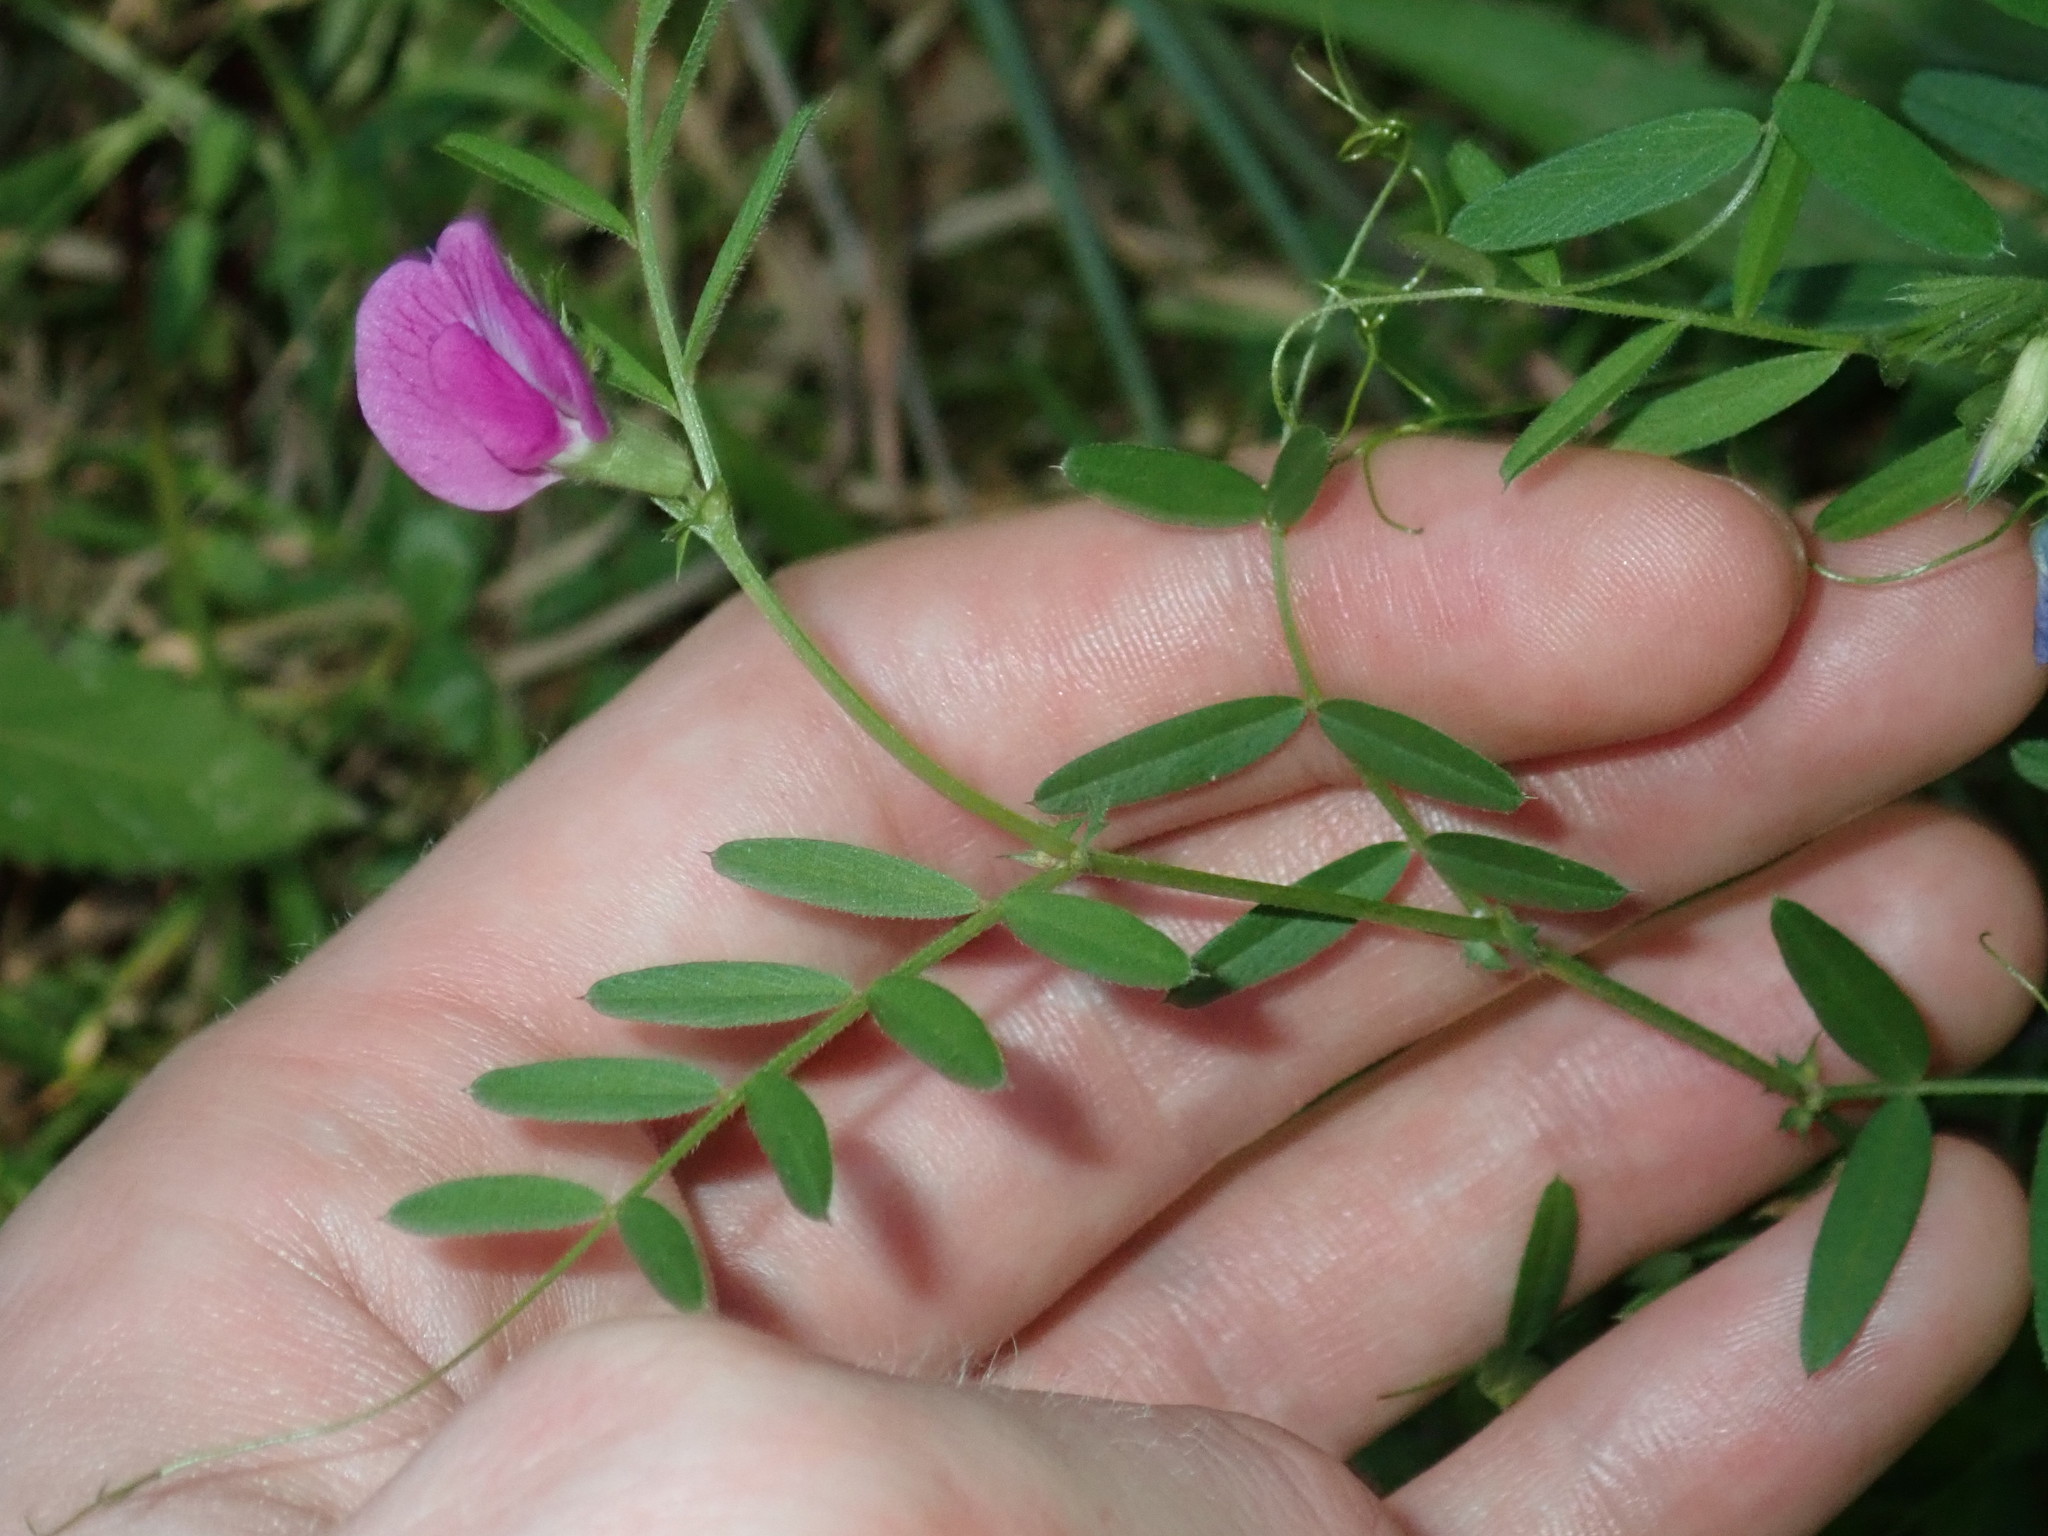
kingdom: Plantae
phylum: Tracheophyta
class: Magnoliopsida
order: Fabales
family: Fabaceae
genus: Vicia
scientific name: Vicia sativa
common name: Garden vetch
